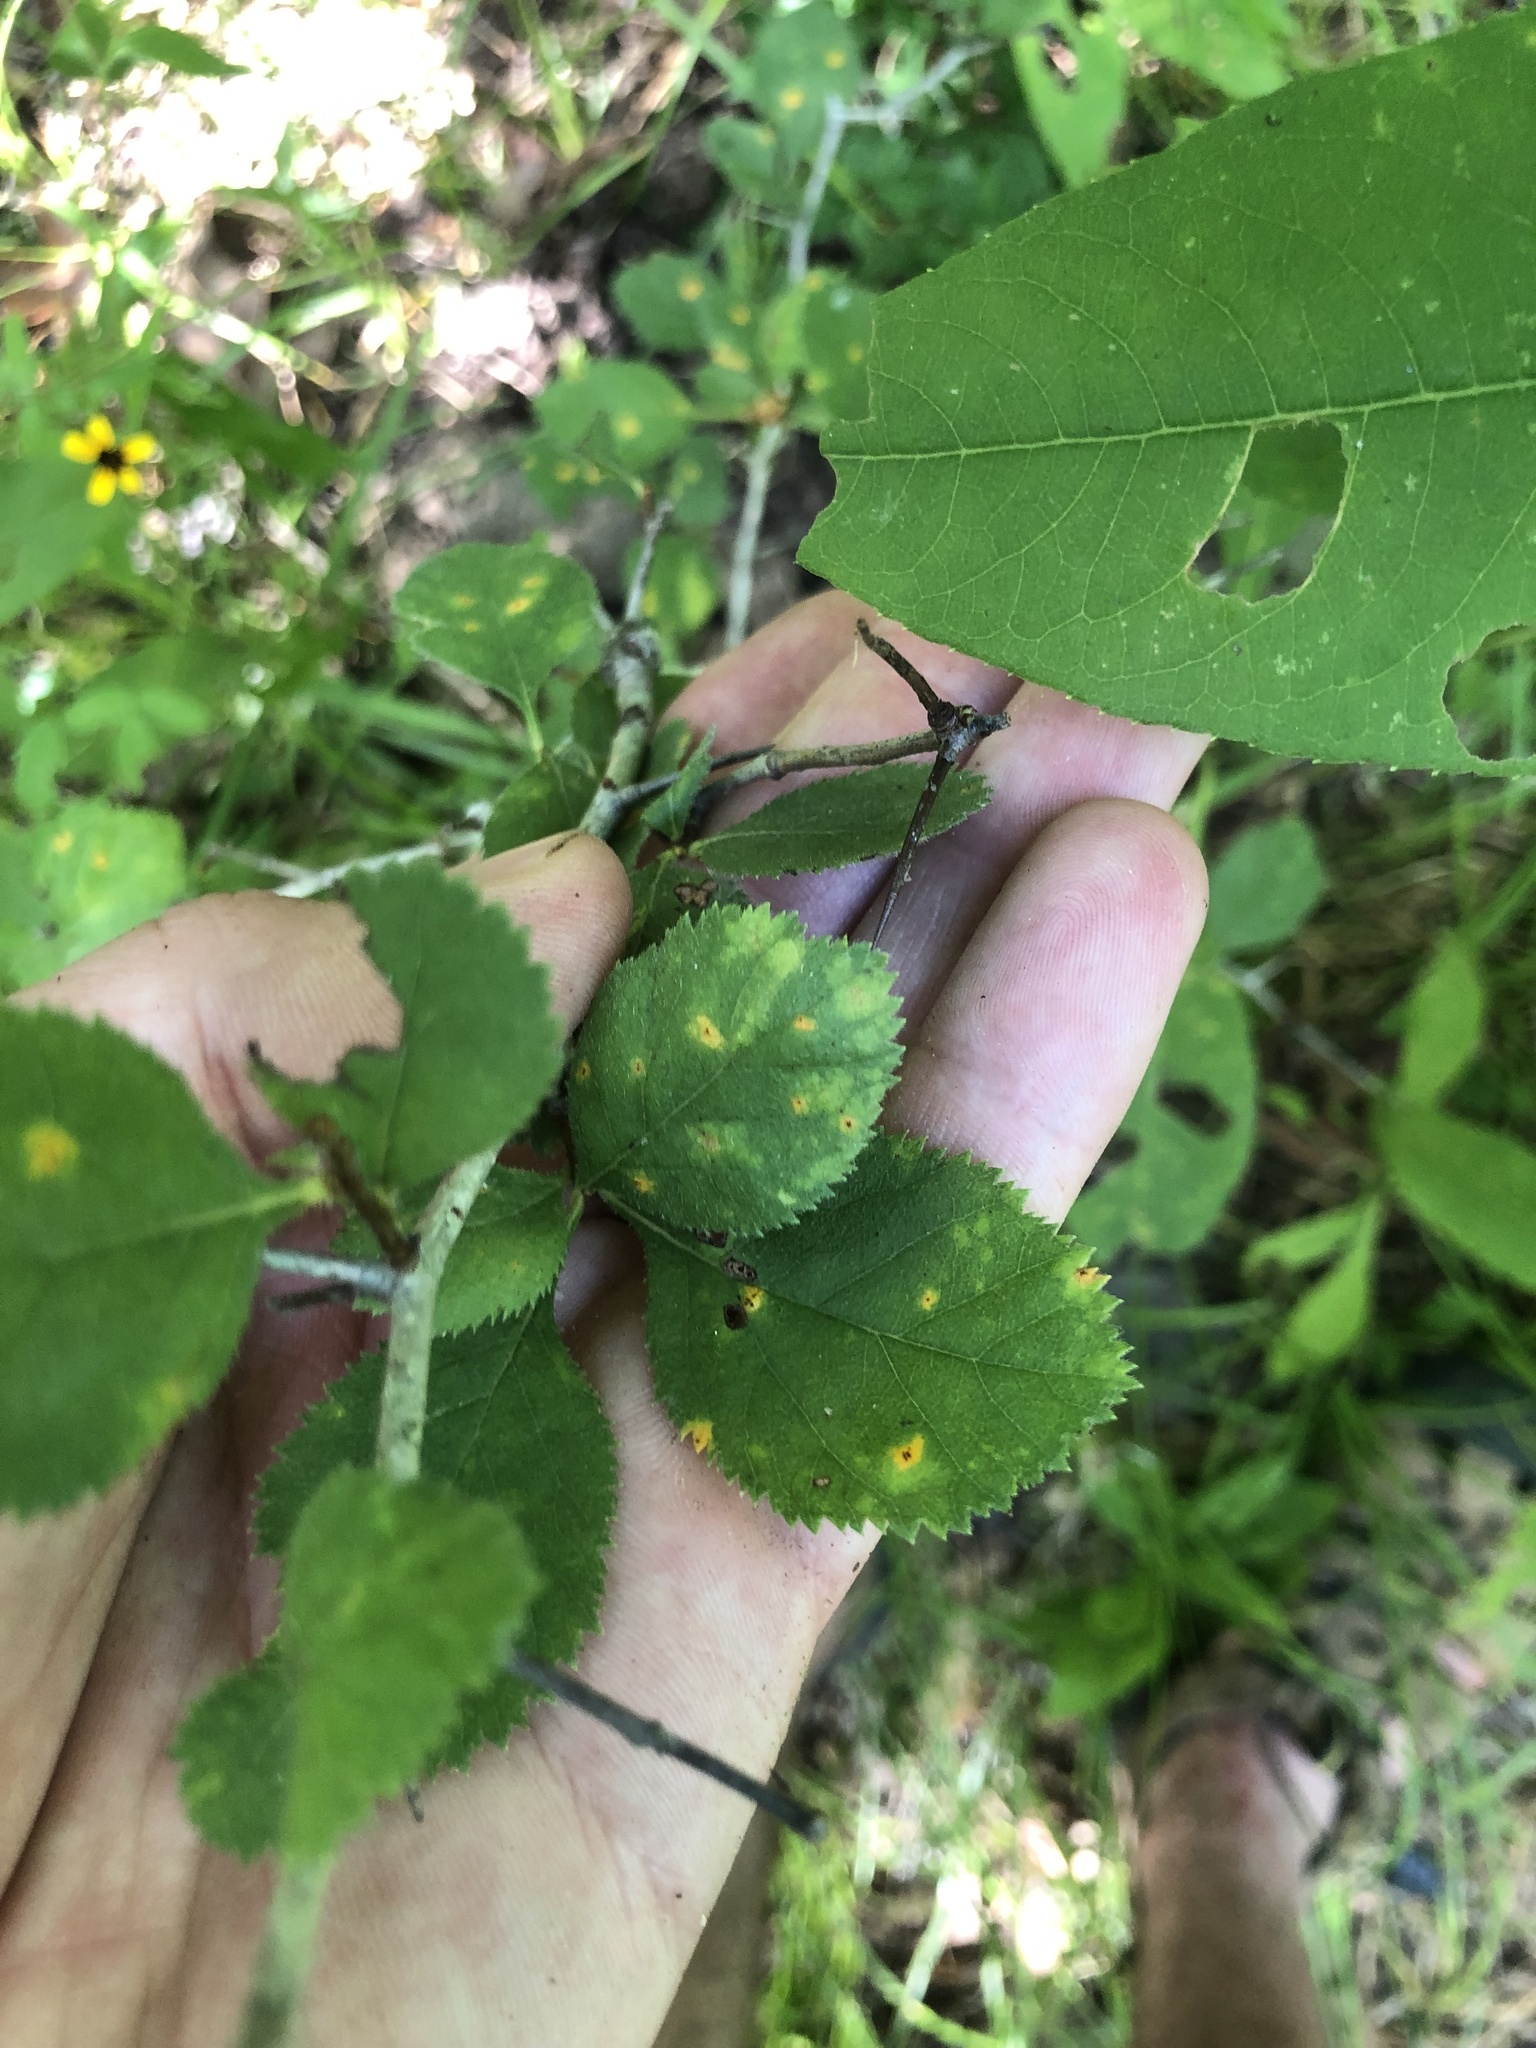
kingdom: Plantae
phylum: Tracheophyta
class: Magnoliopsida
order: Rosales
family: Rosaceae
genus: Crataegus
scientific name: Crataegus ashei
